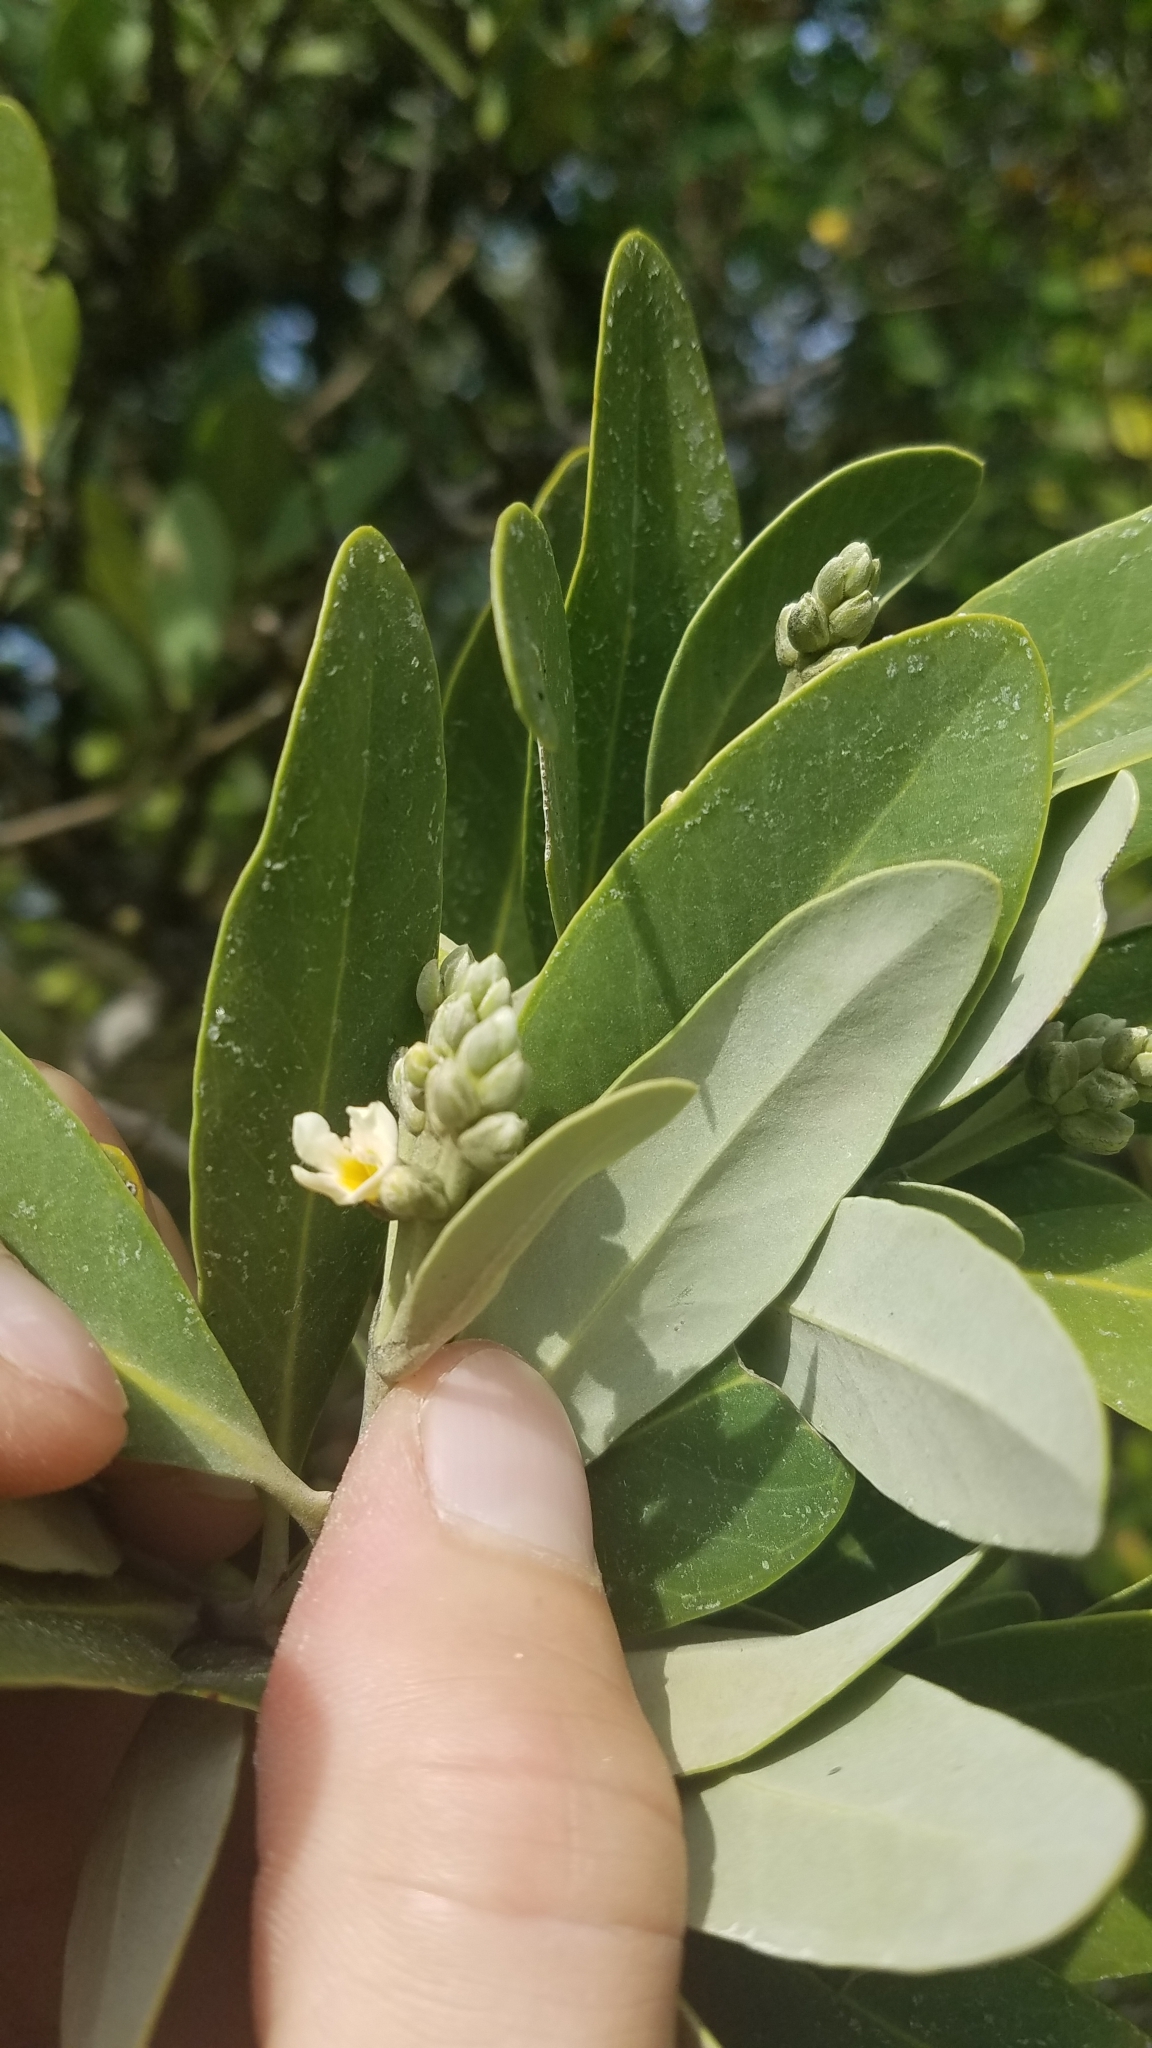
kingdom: Plantae
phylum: Tracheophyta
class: Magnoliopsida
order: Lamiales
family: Acanthaceae
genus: Avicennia
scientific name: Avicennia germinans
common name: Black mangrove
